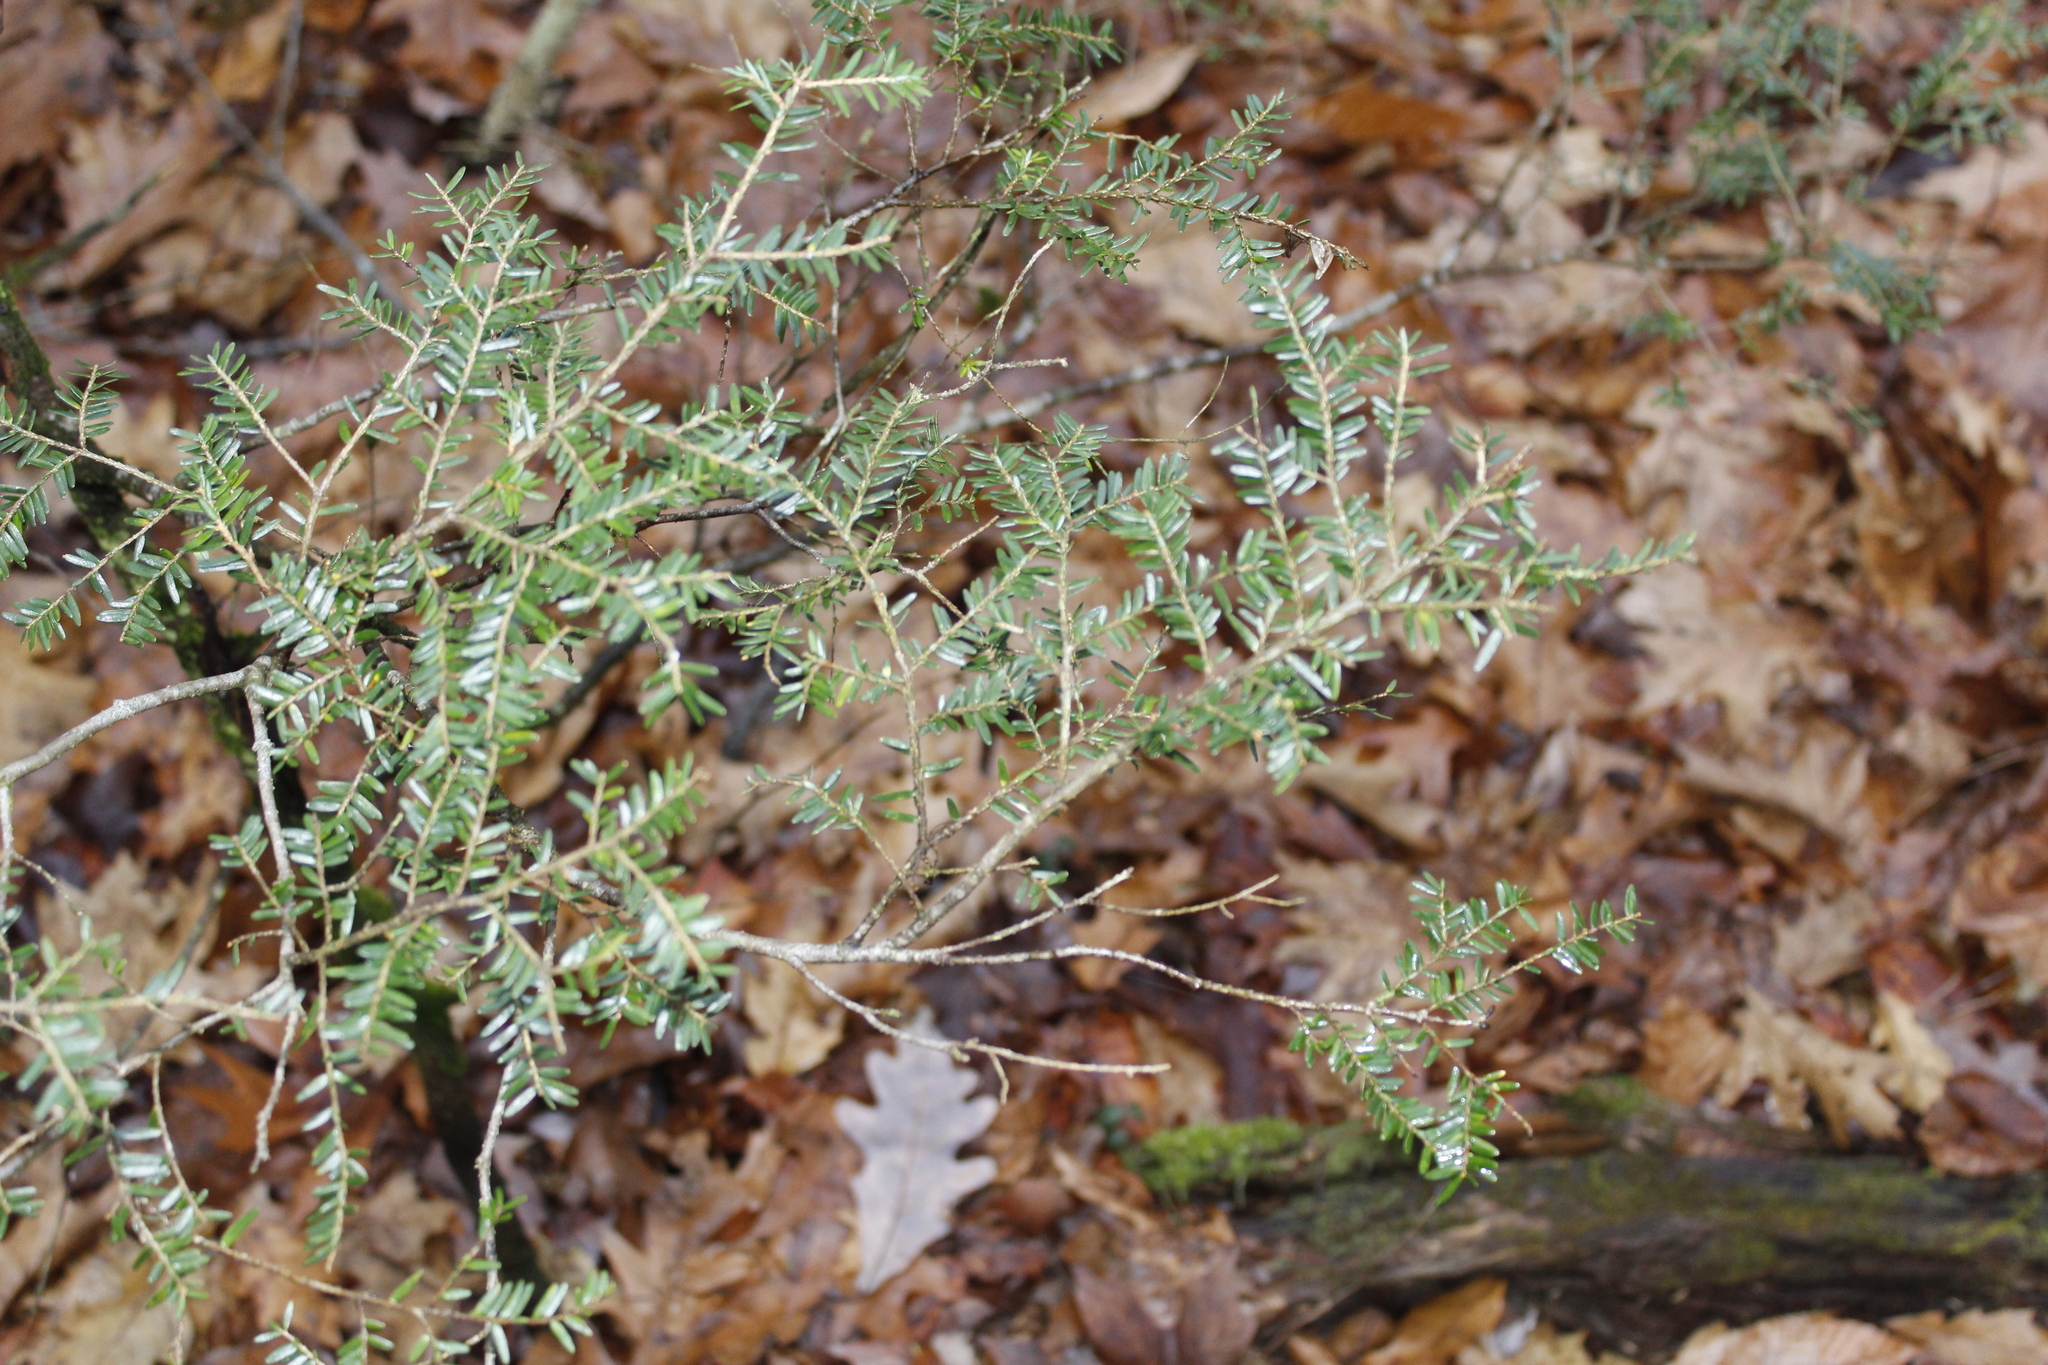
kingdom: Plantae
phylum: Tracheophyta
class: Pinopsida
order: Pinales
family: Pinaceae
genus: Tsuga
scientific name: Tsuga canadensis
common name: Eastern hemlock
